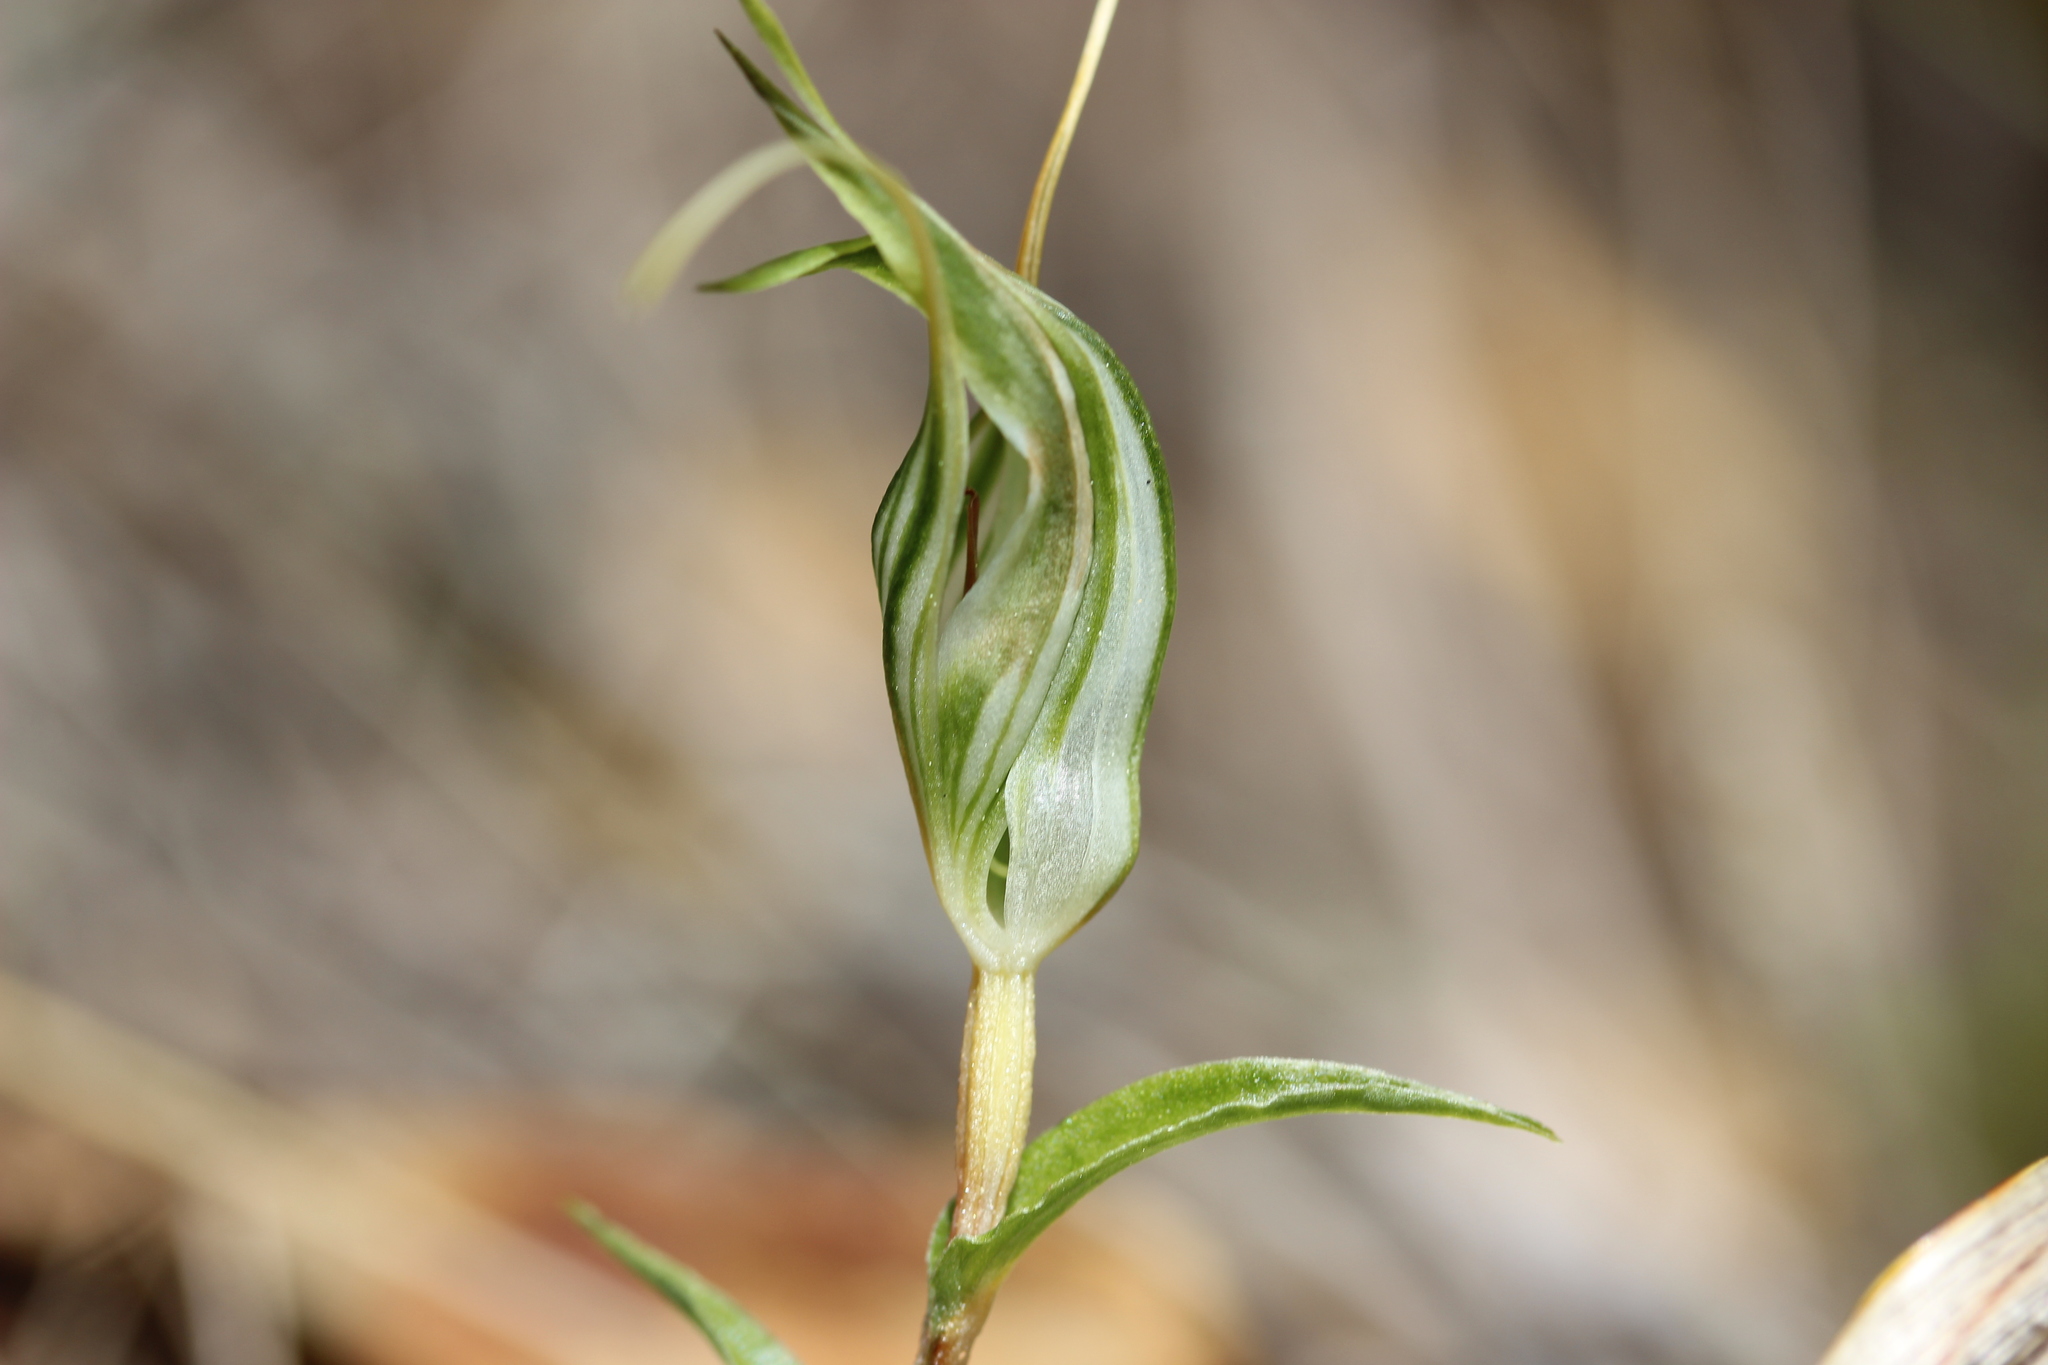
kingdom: Plantae
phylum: Tracheophyta
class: Liliopsida
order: Asparagales
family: Orchidaceae
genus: Pterostylis
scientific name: Pterostylis alobula
